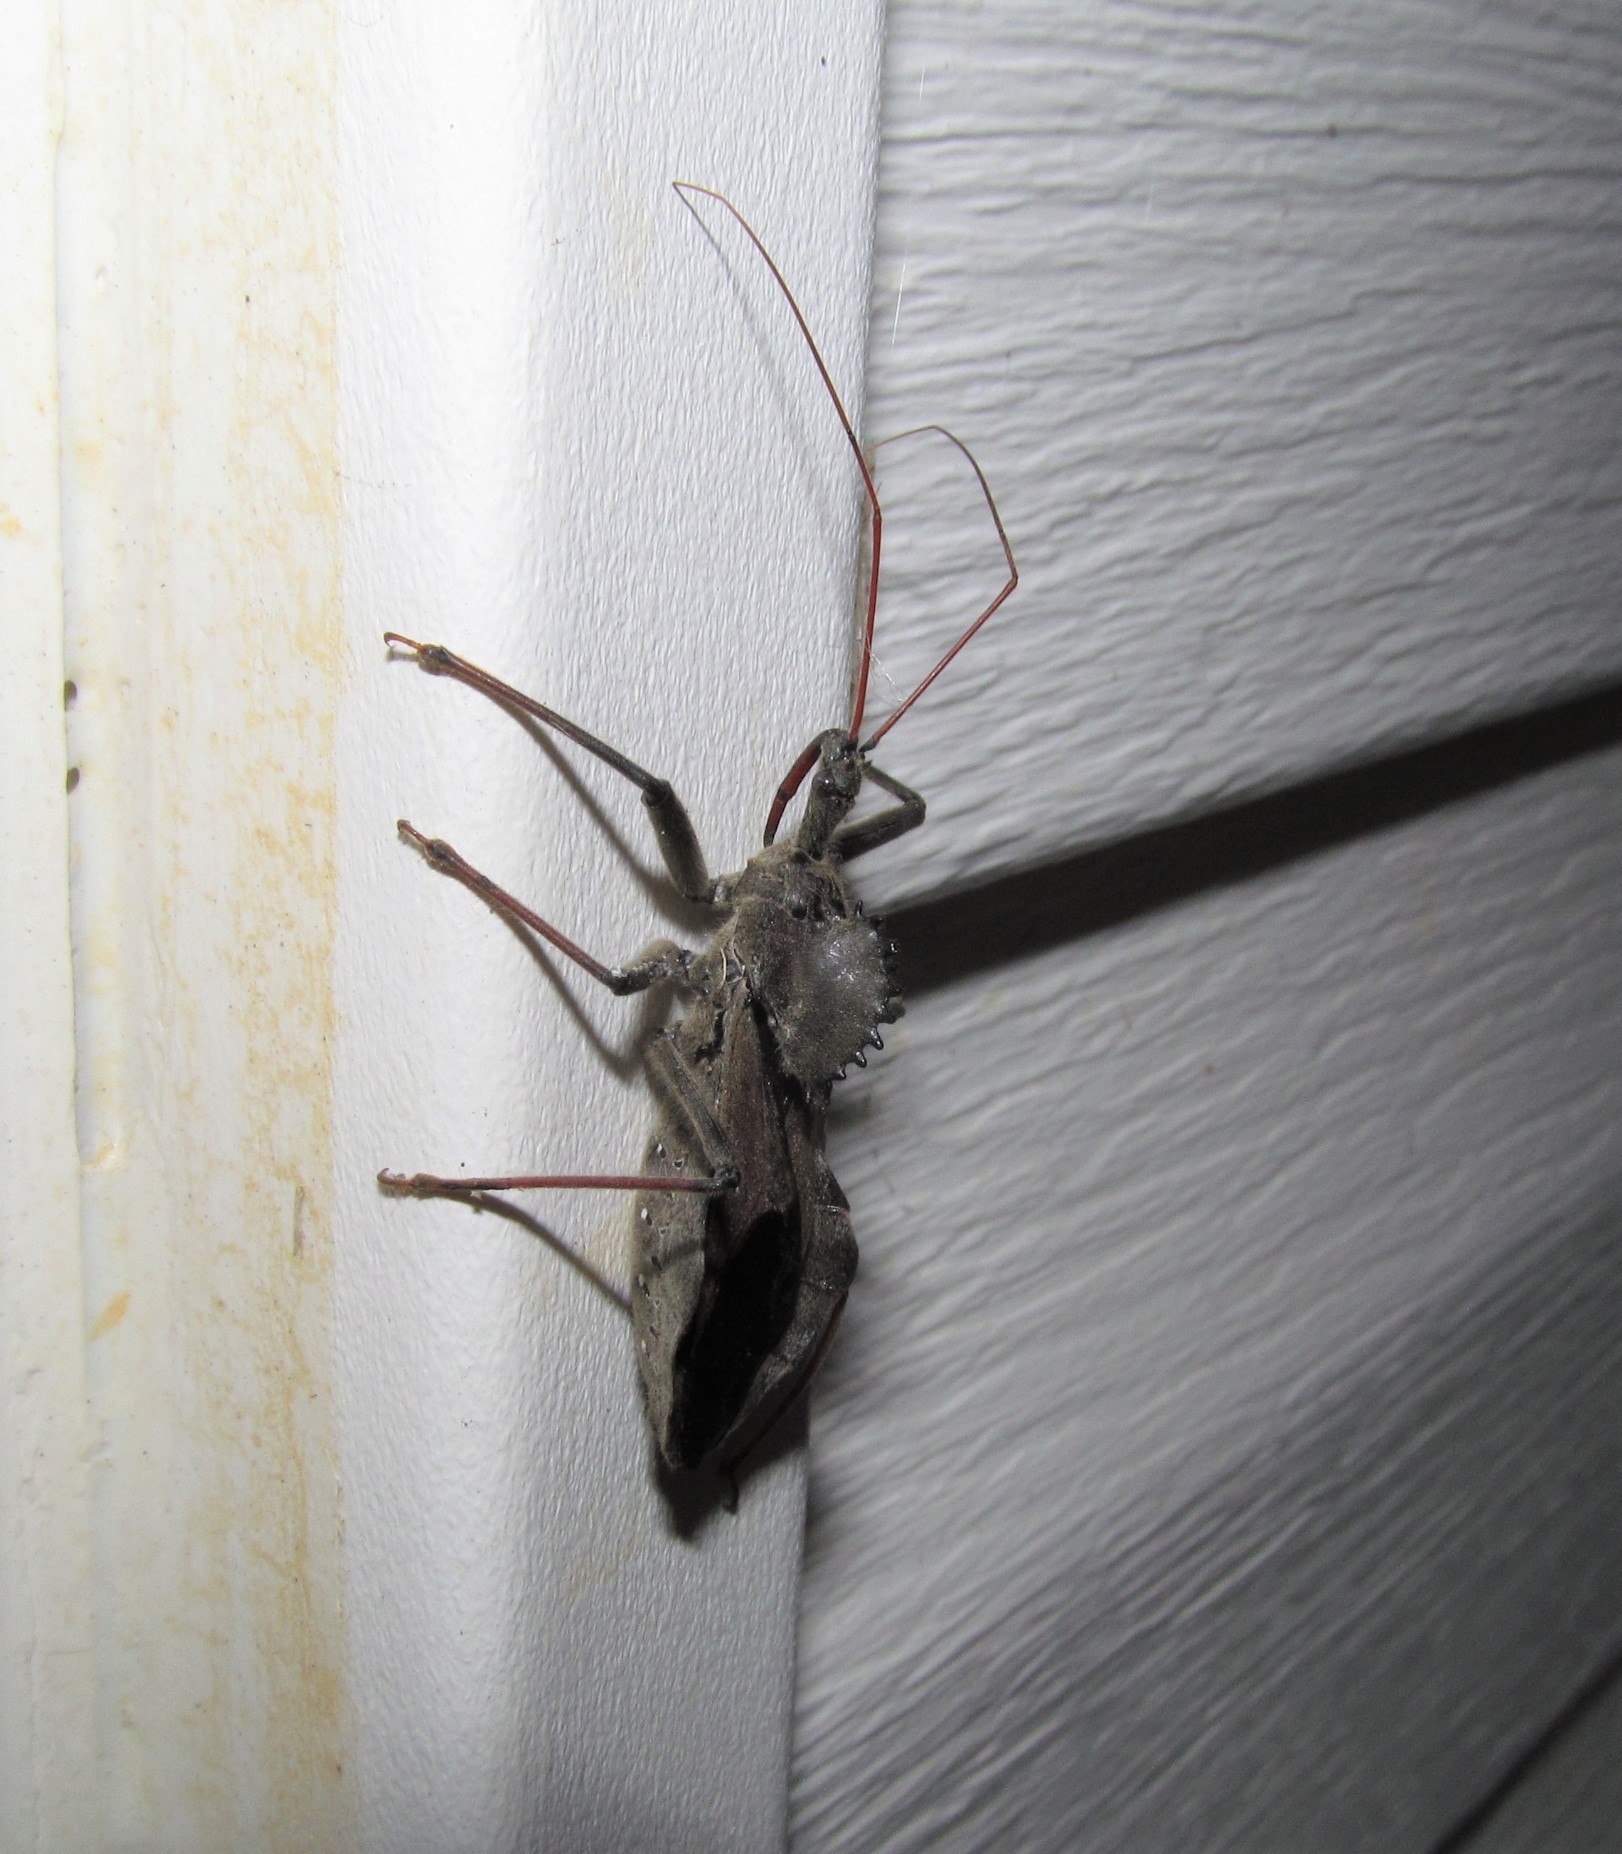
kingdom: Animalia
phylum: Arthropoda
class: Insecta
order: Hemiptera
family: Reduviidae
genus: Arilus
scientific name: Arilus cristatus
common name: North american wheel bug
